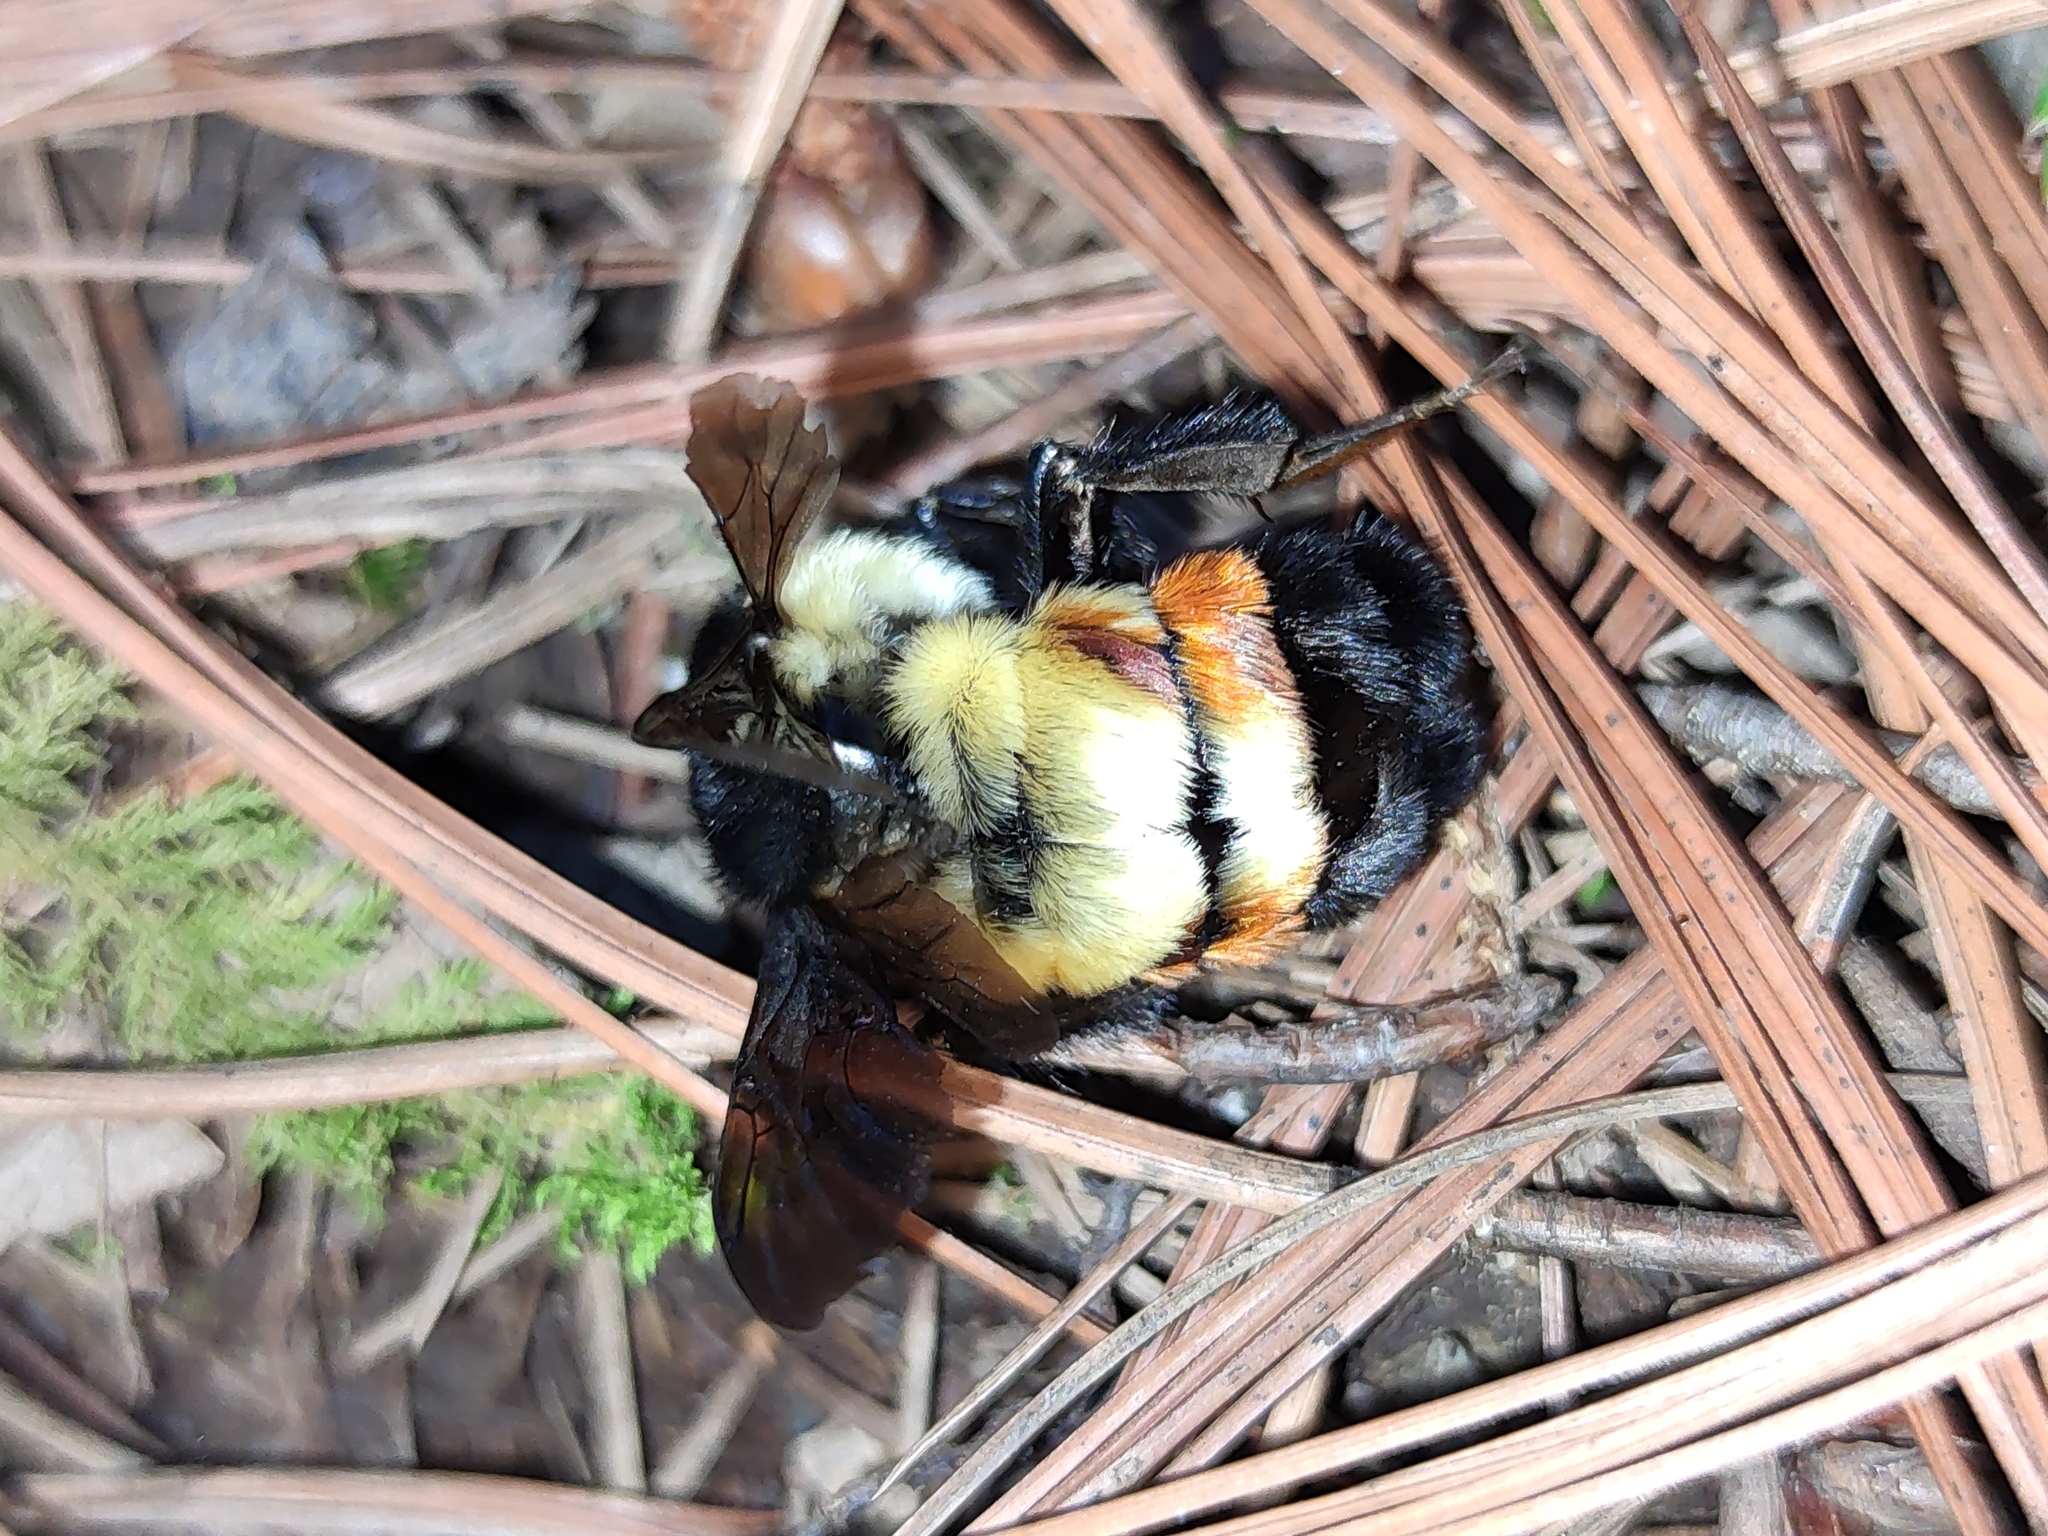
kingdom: Animalia
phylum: Arthropoda
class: Insecta
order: Hymenoptera
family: Apidae
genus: Bombus
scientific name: Bombus ephippiatus
